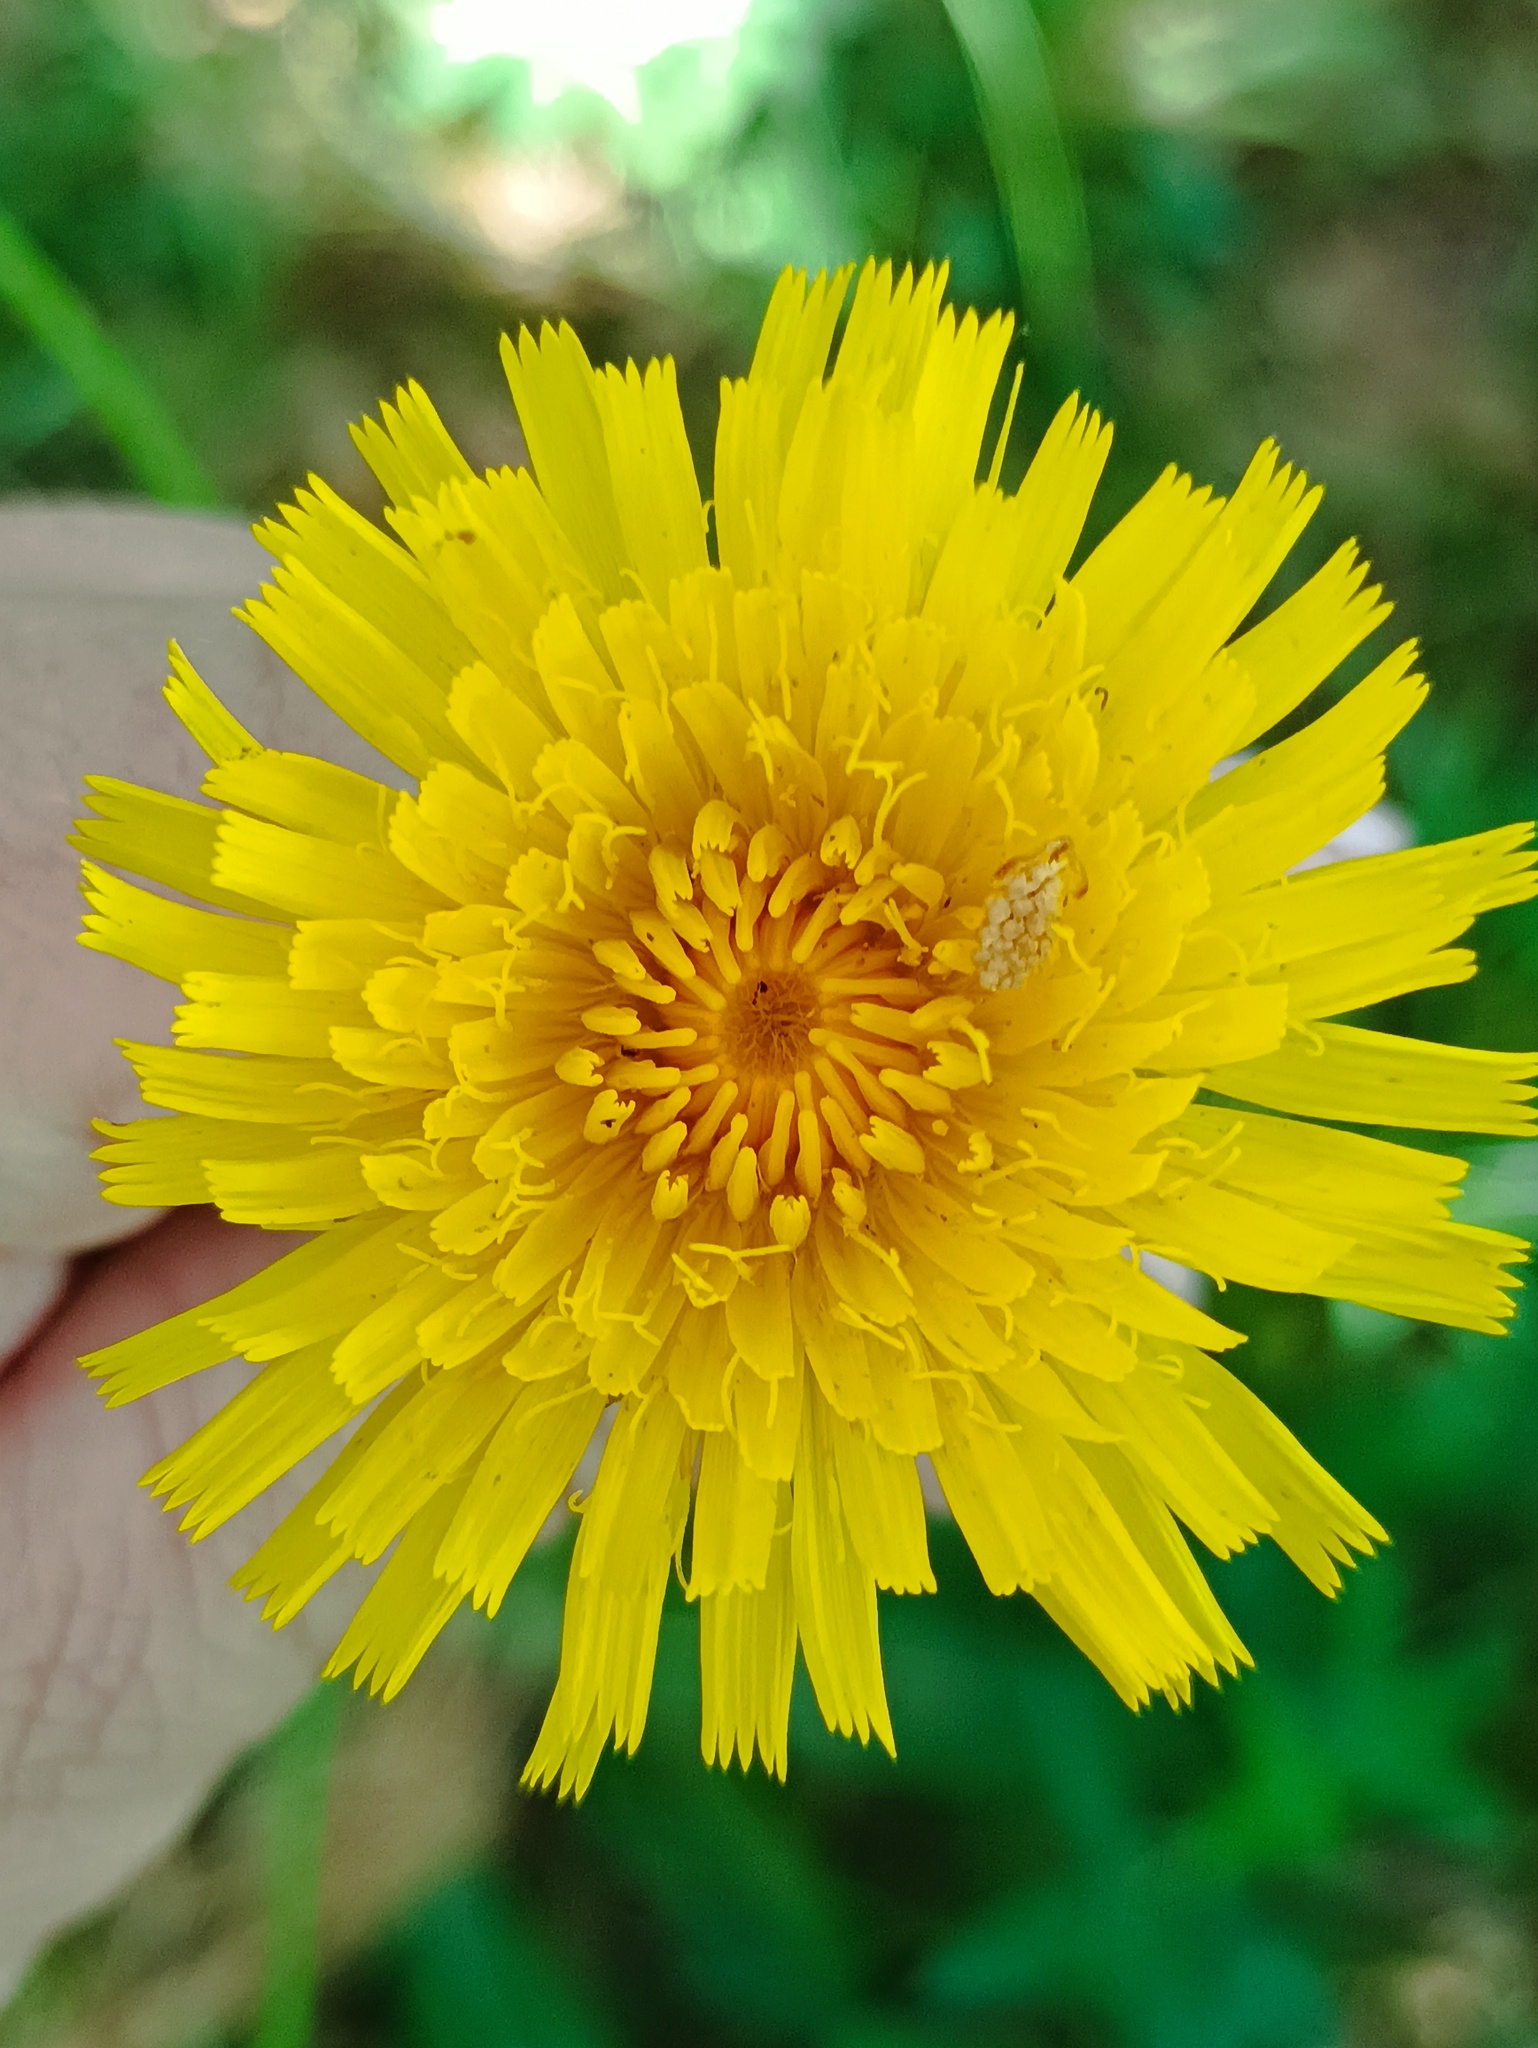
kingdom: Plantae
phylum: Tracheophyta
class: Magnoliopsida
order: Asterales
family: Asteraceae
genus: Trommsdorffia
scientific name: Trommsdorffia maculata
